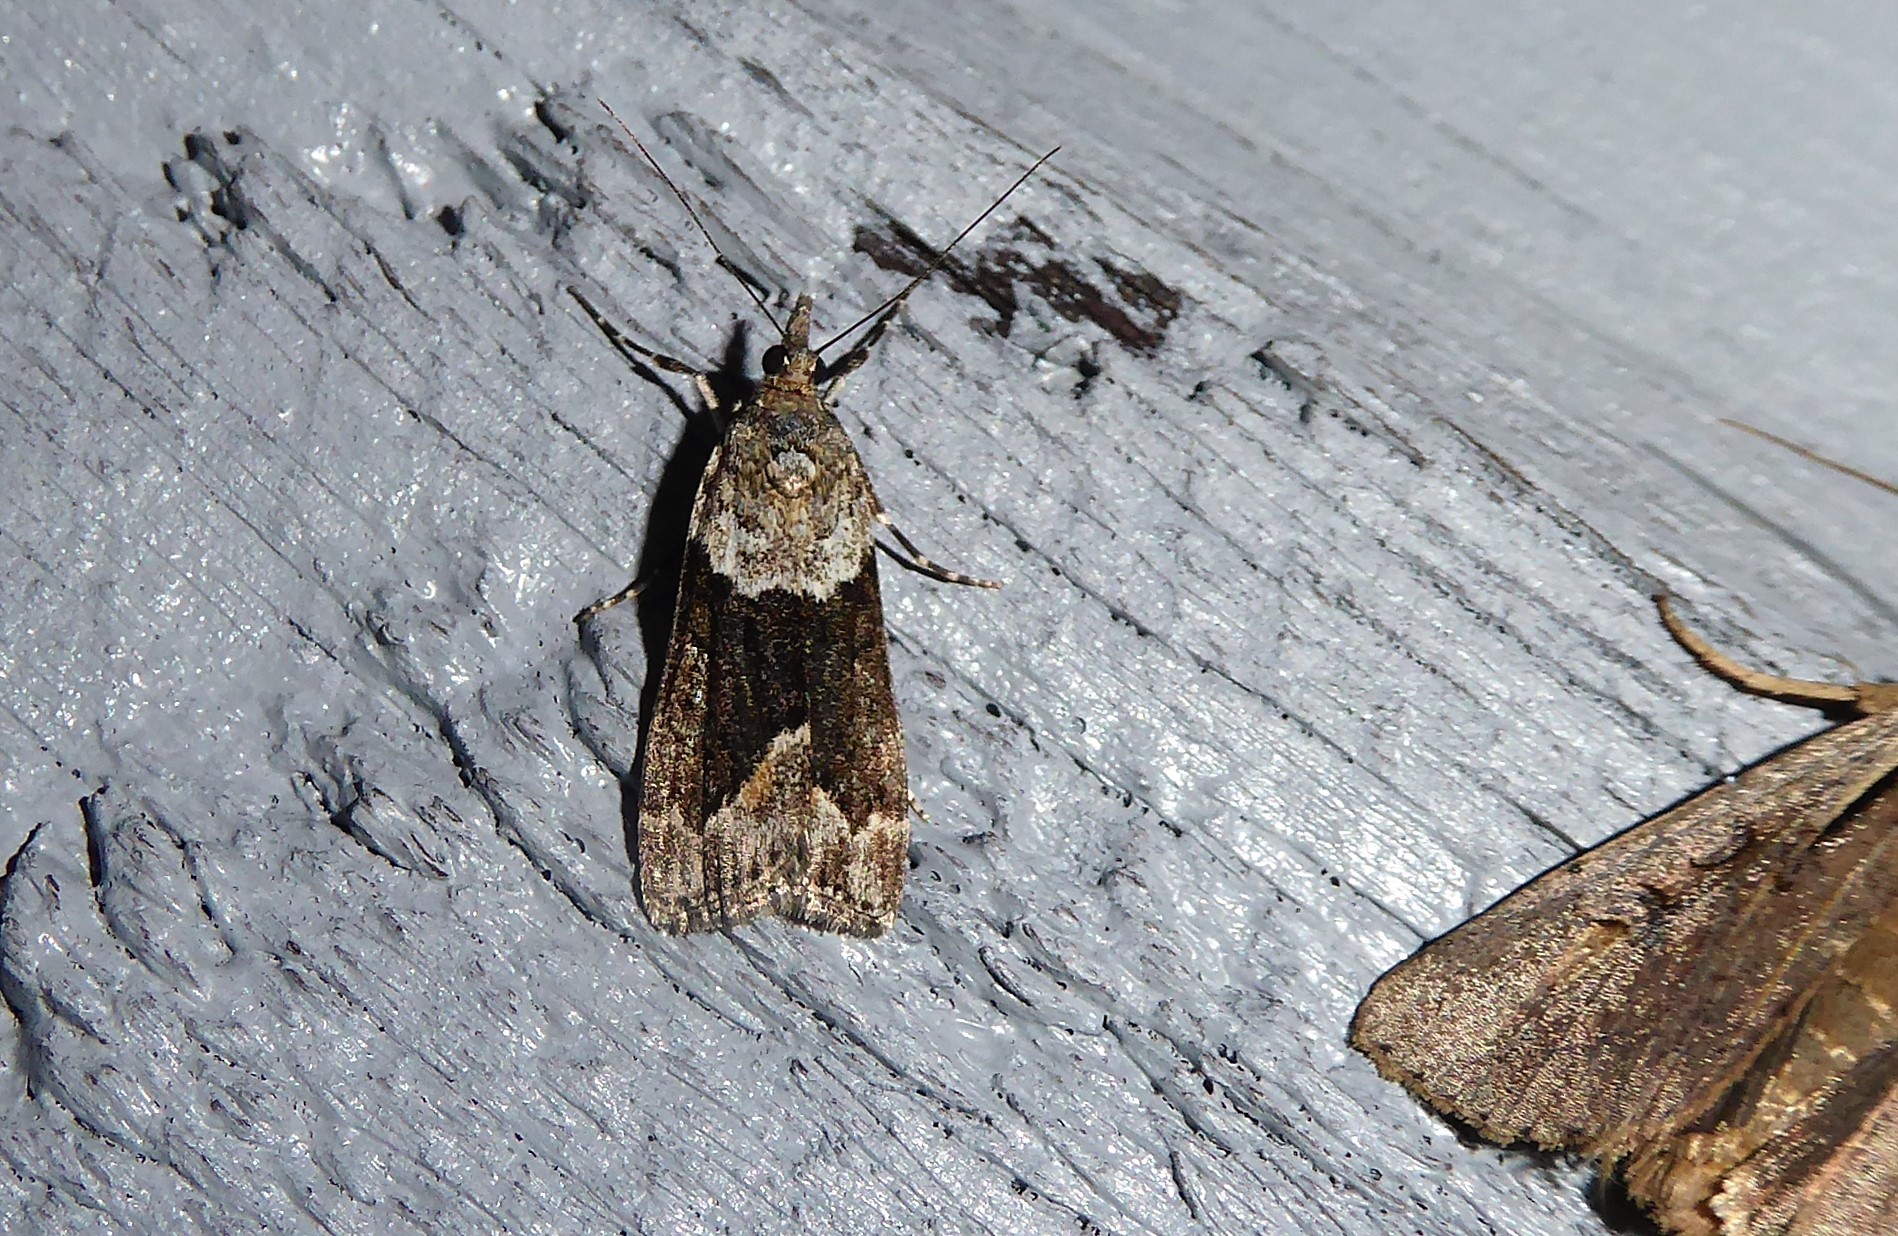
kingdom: Animalia
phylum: Arthropoda
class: Insecta
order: Lepidoptera
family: Crambidae
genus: Eudonia
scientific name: Eudonia submarginalis
